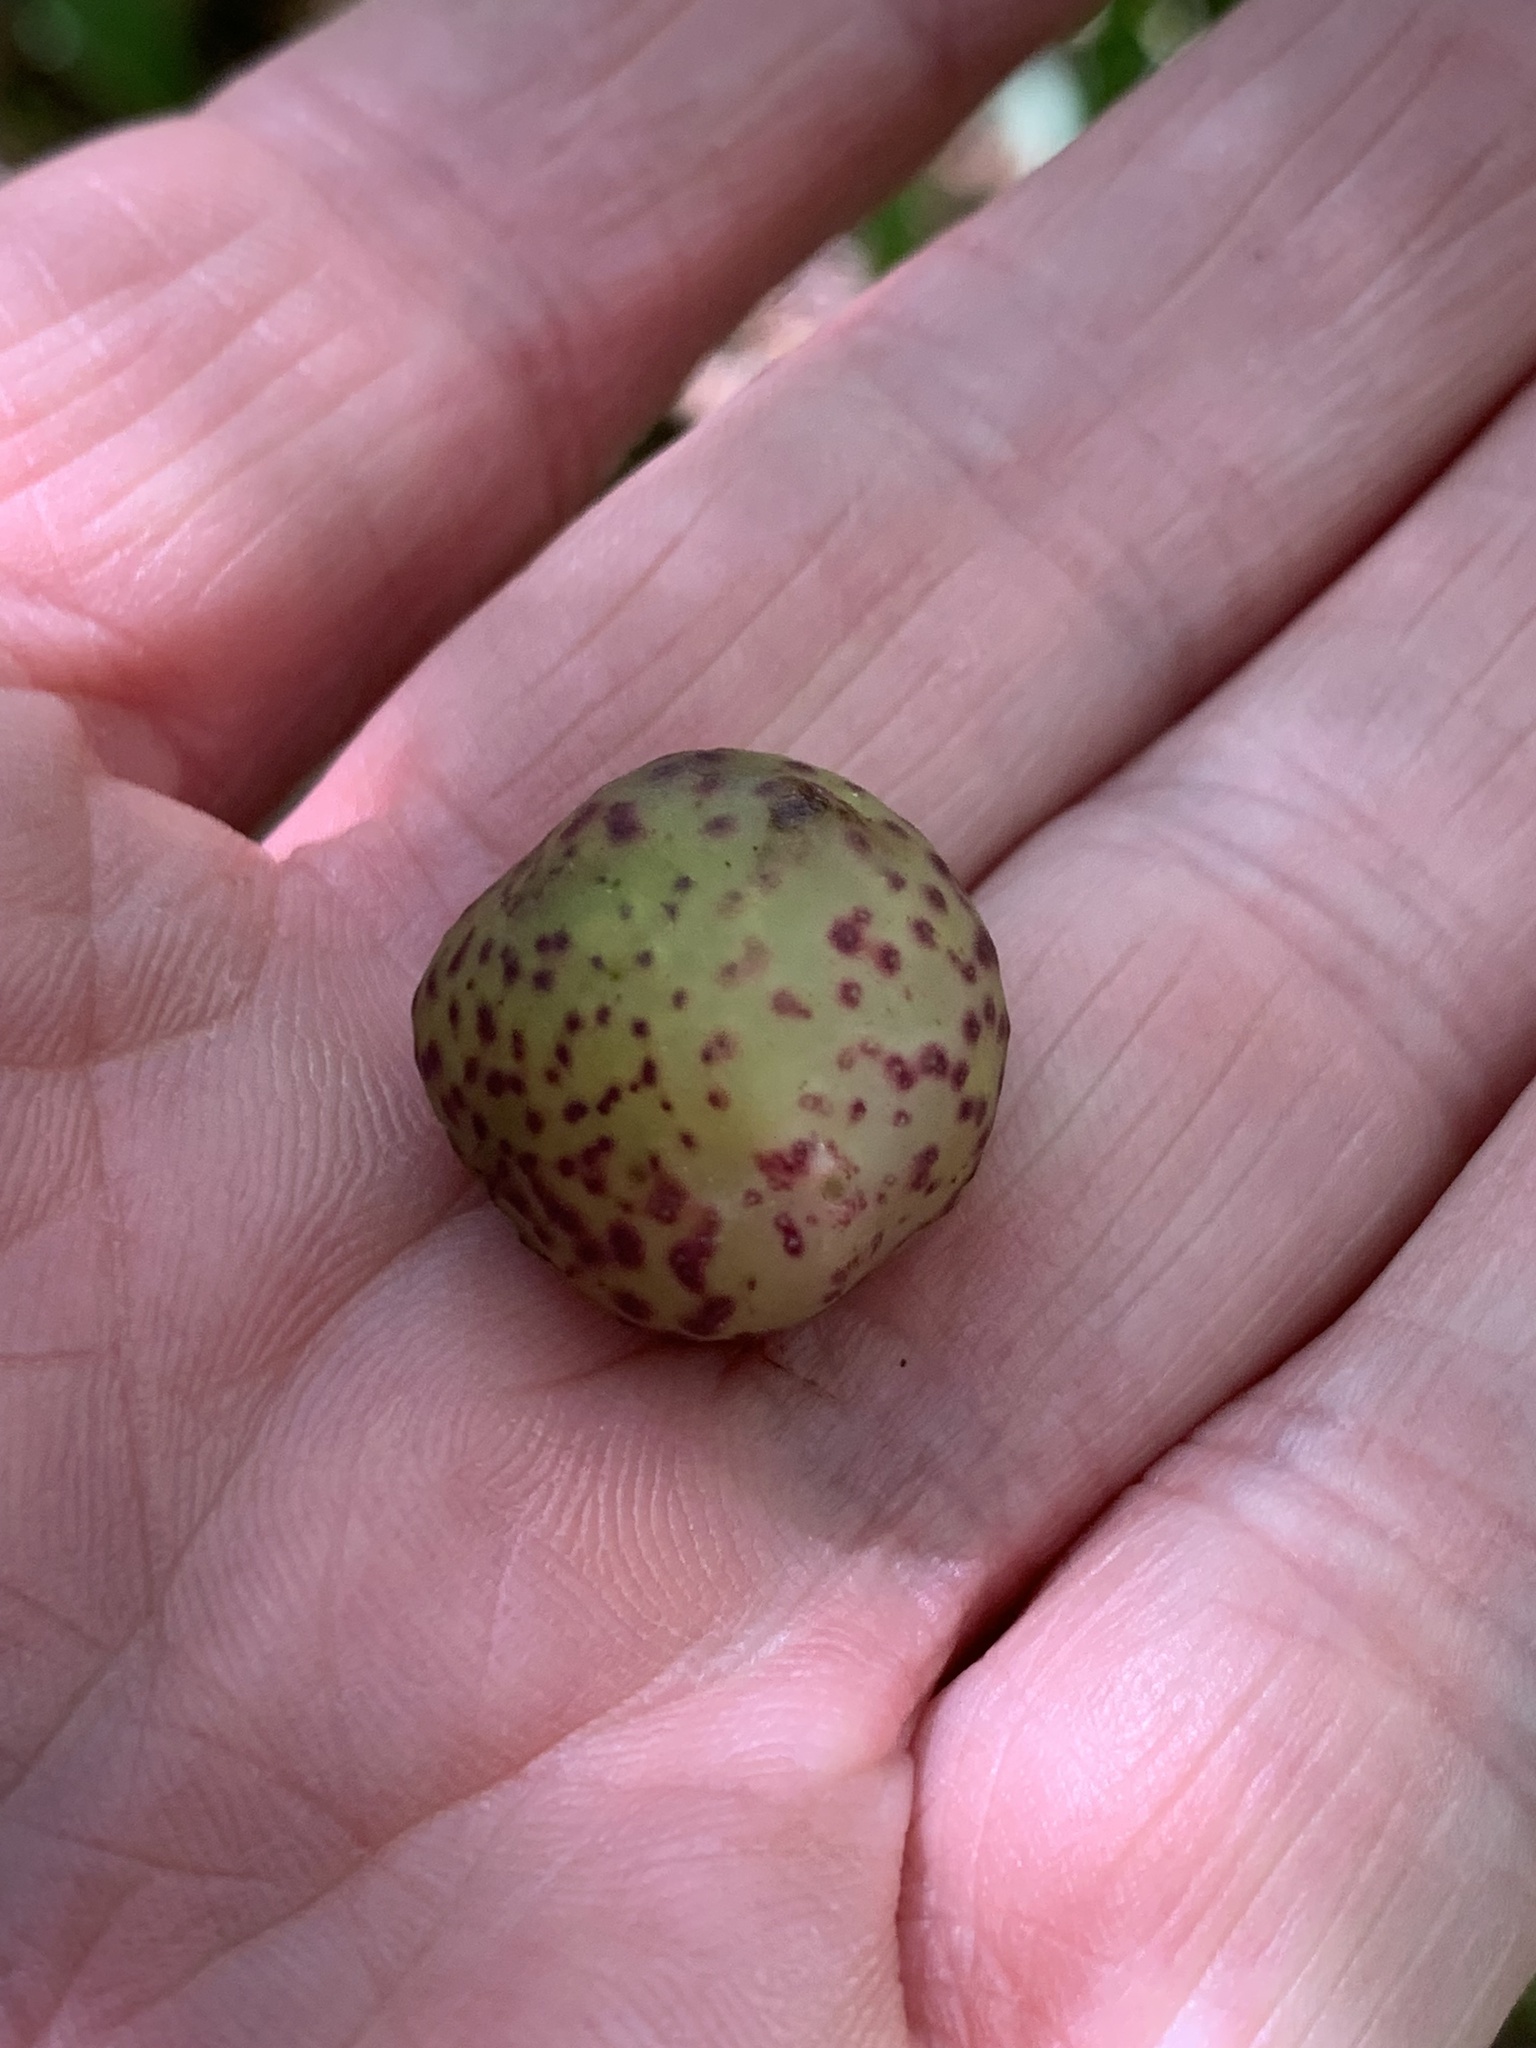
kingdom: Animalia
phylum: Arthropoda
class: Insecta
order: Hymenoptera
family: Cynipidae
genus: Amphibolips
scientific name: Amphibolips
